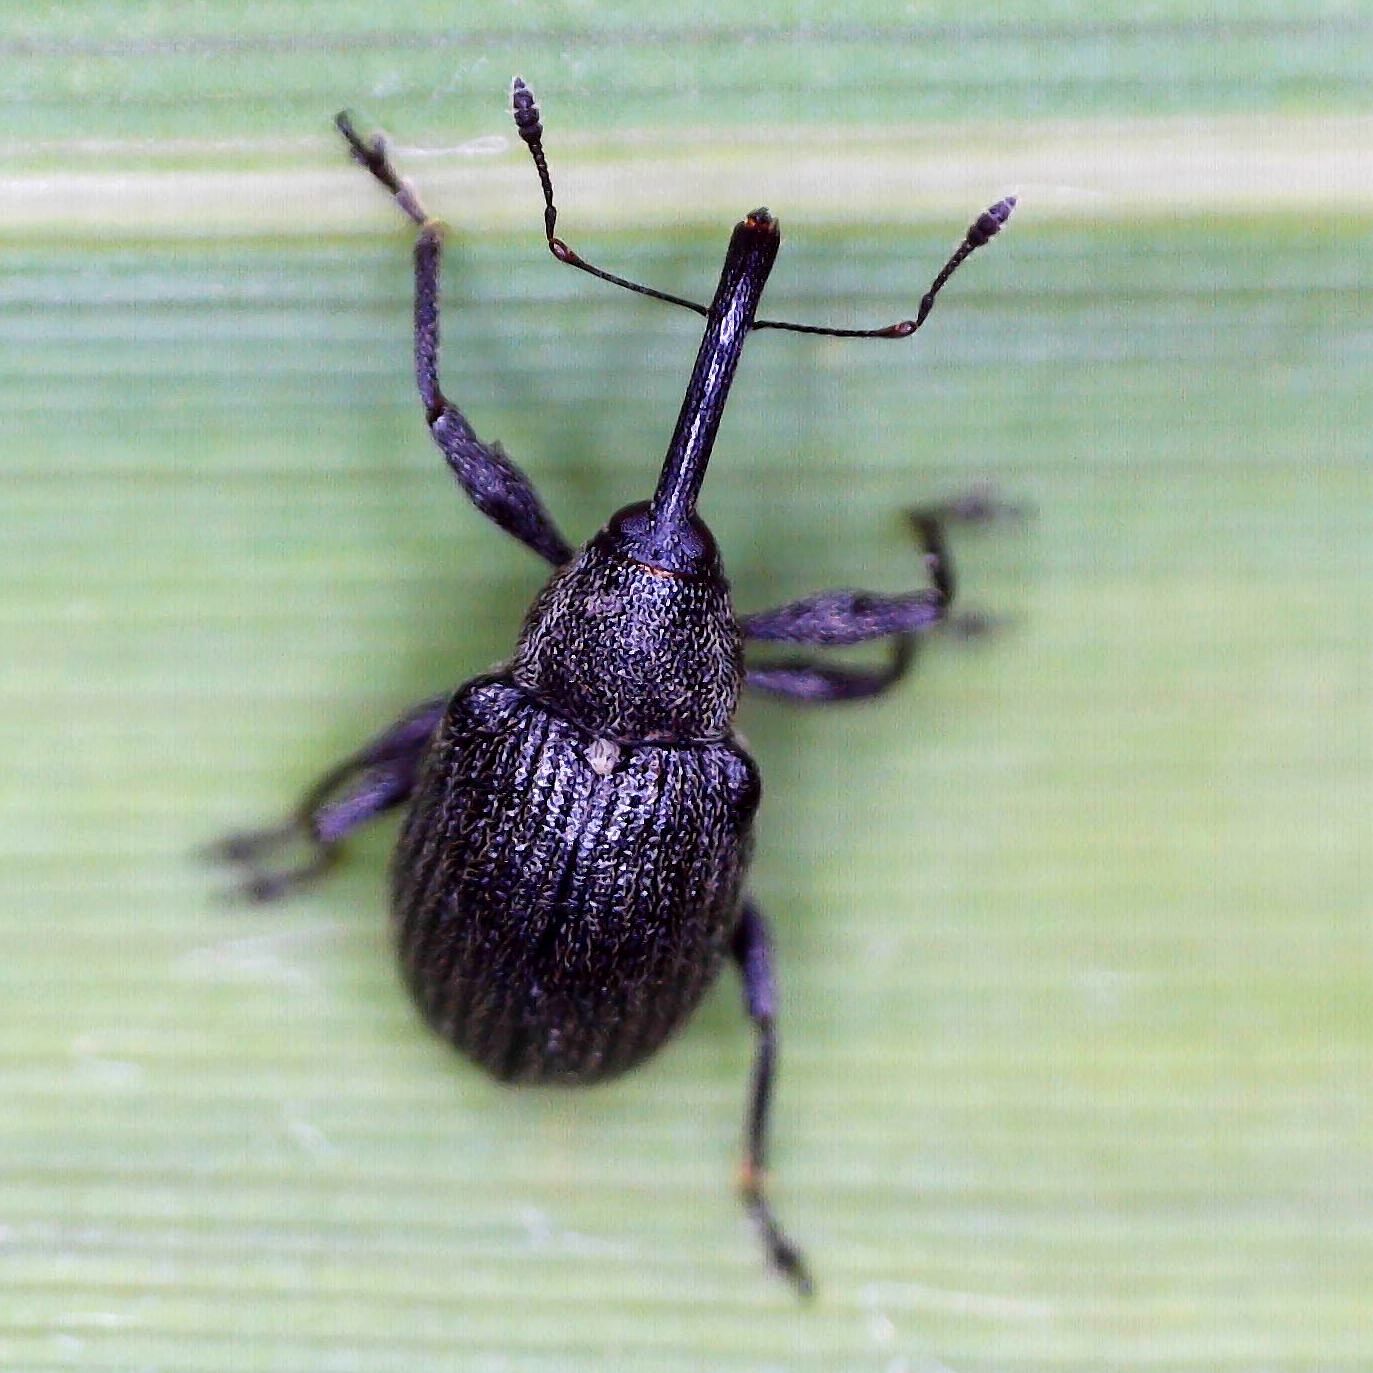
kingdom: Animalia
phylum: Arthropoda
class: Insecta
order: Coleoptera
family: Curculionidae
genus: Anthonomus
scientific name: Anthonomus rubi
